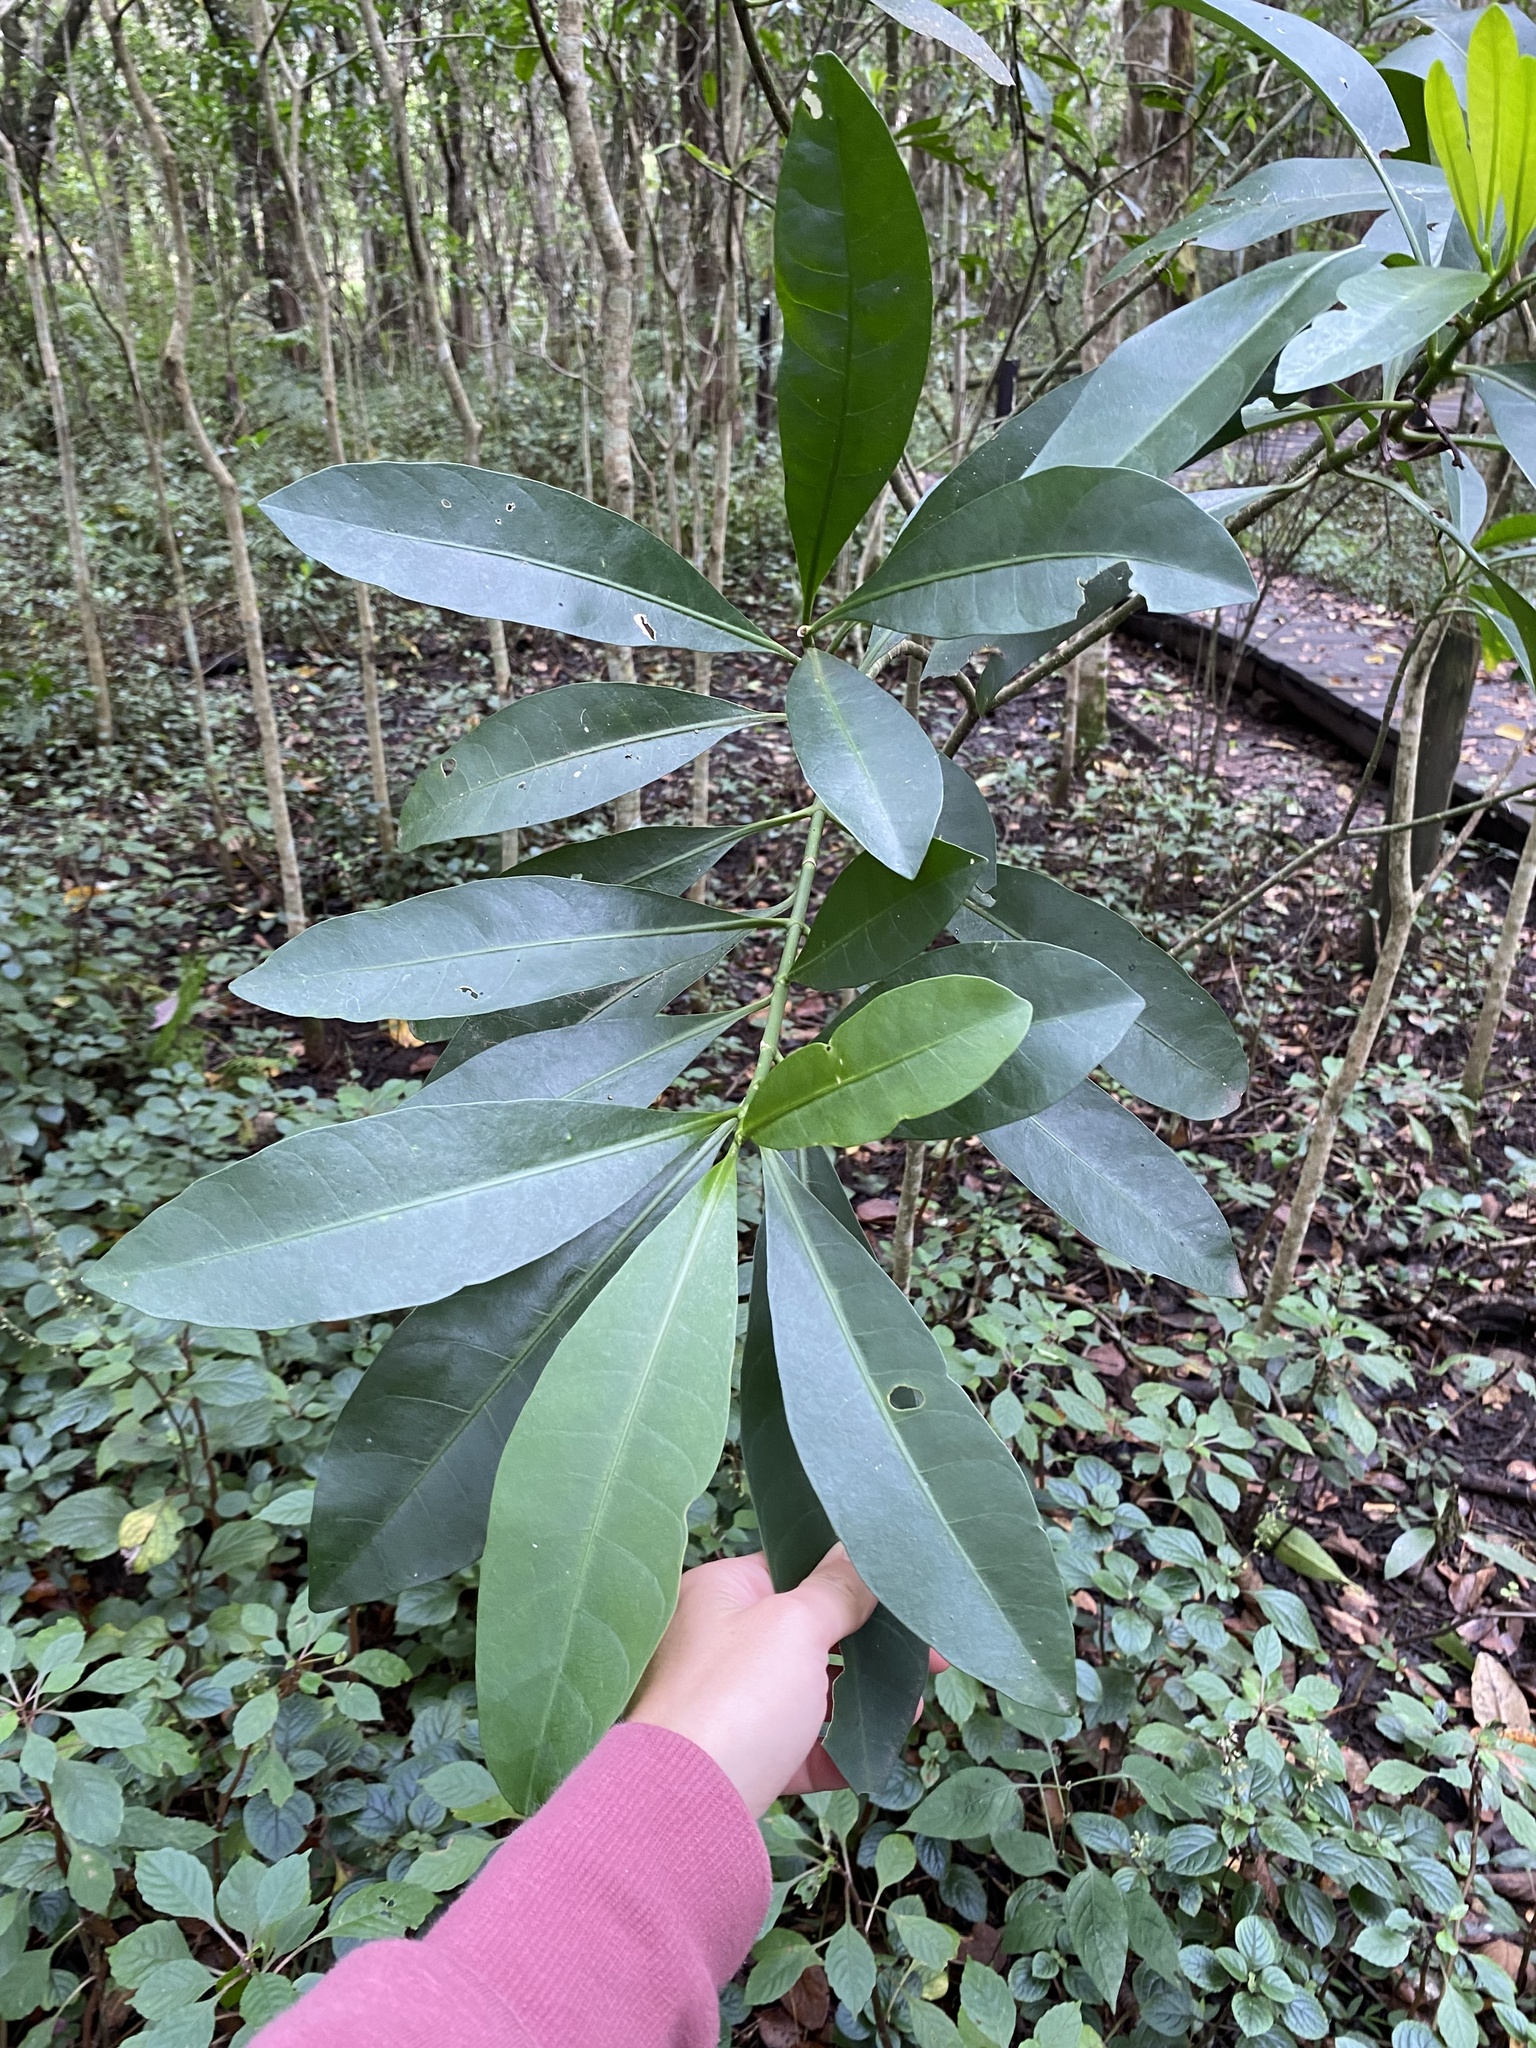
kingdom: Plantae
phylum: Tracheophyta
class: Magnoliopsida
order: Gentianales
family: Apocynaceae
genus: Voacanga
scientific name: Voacanga thouarsii
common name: Wild frangipani
